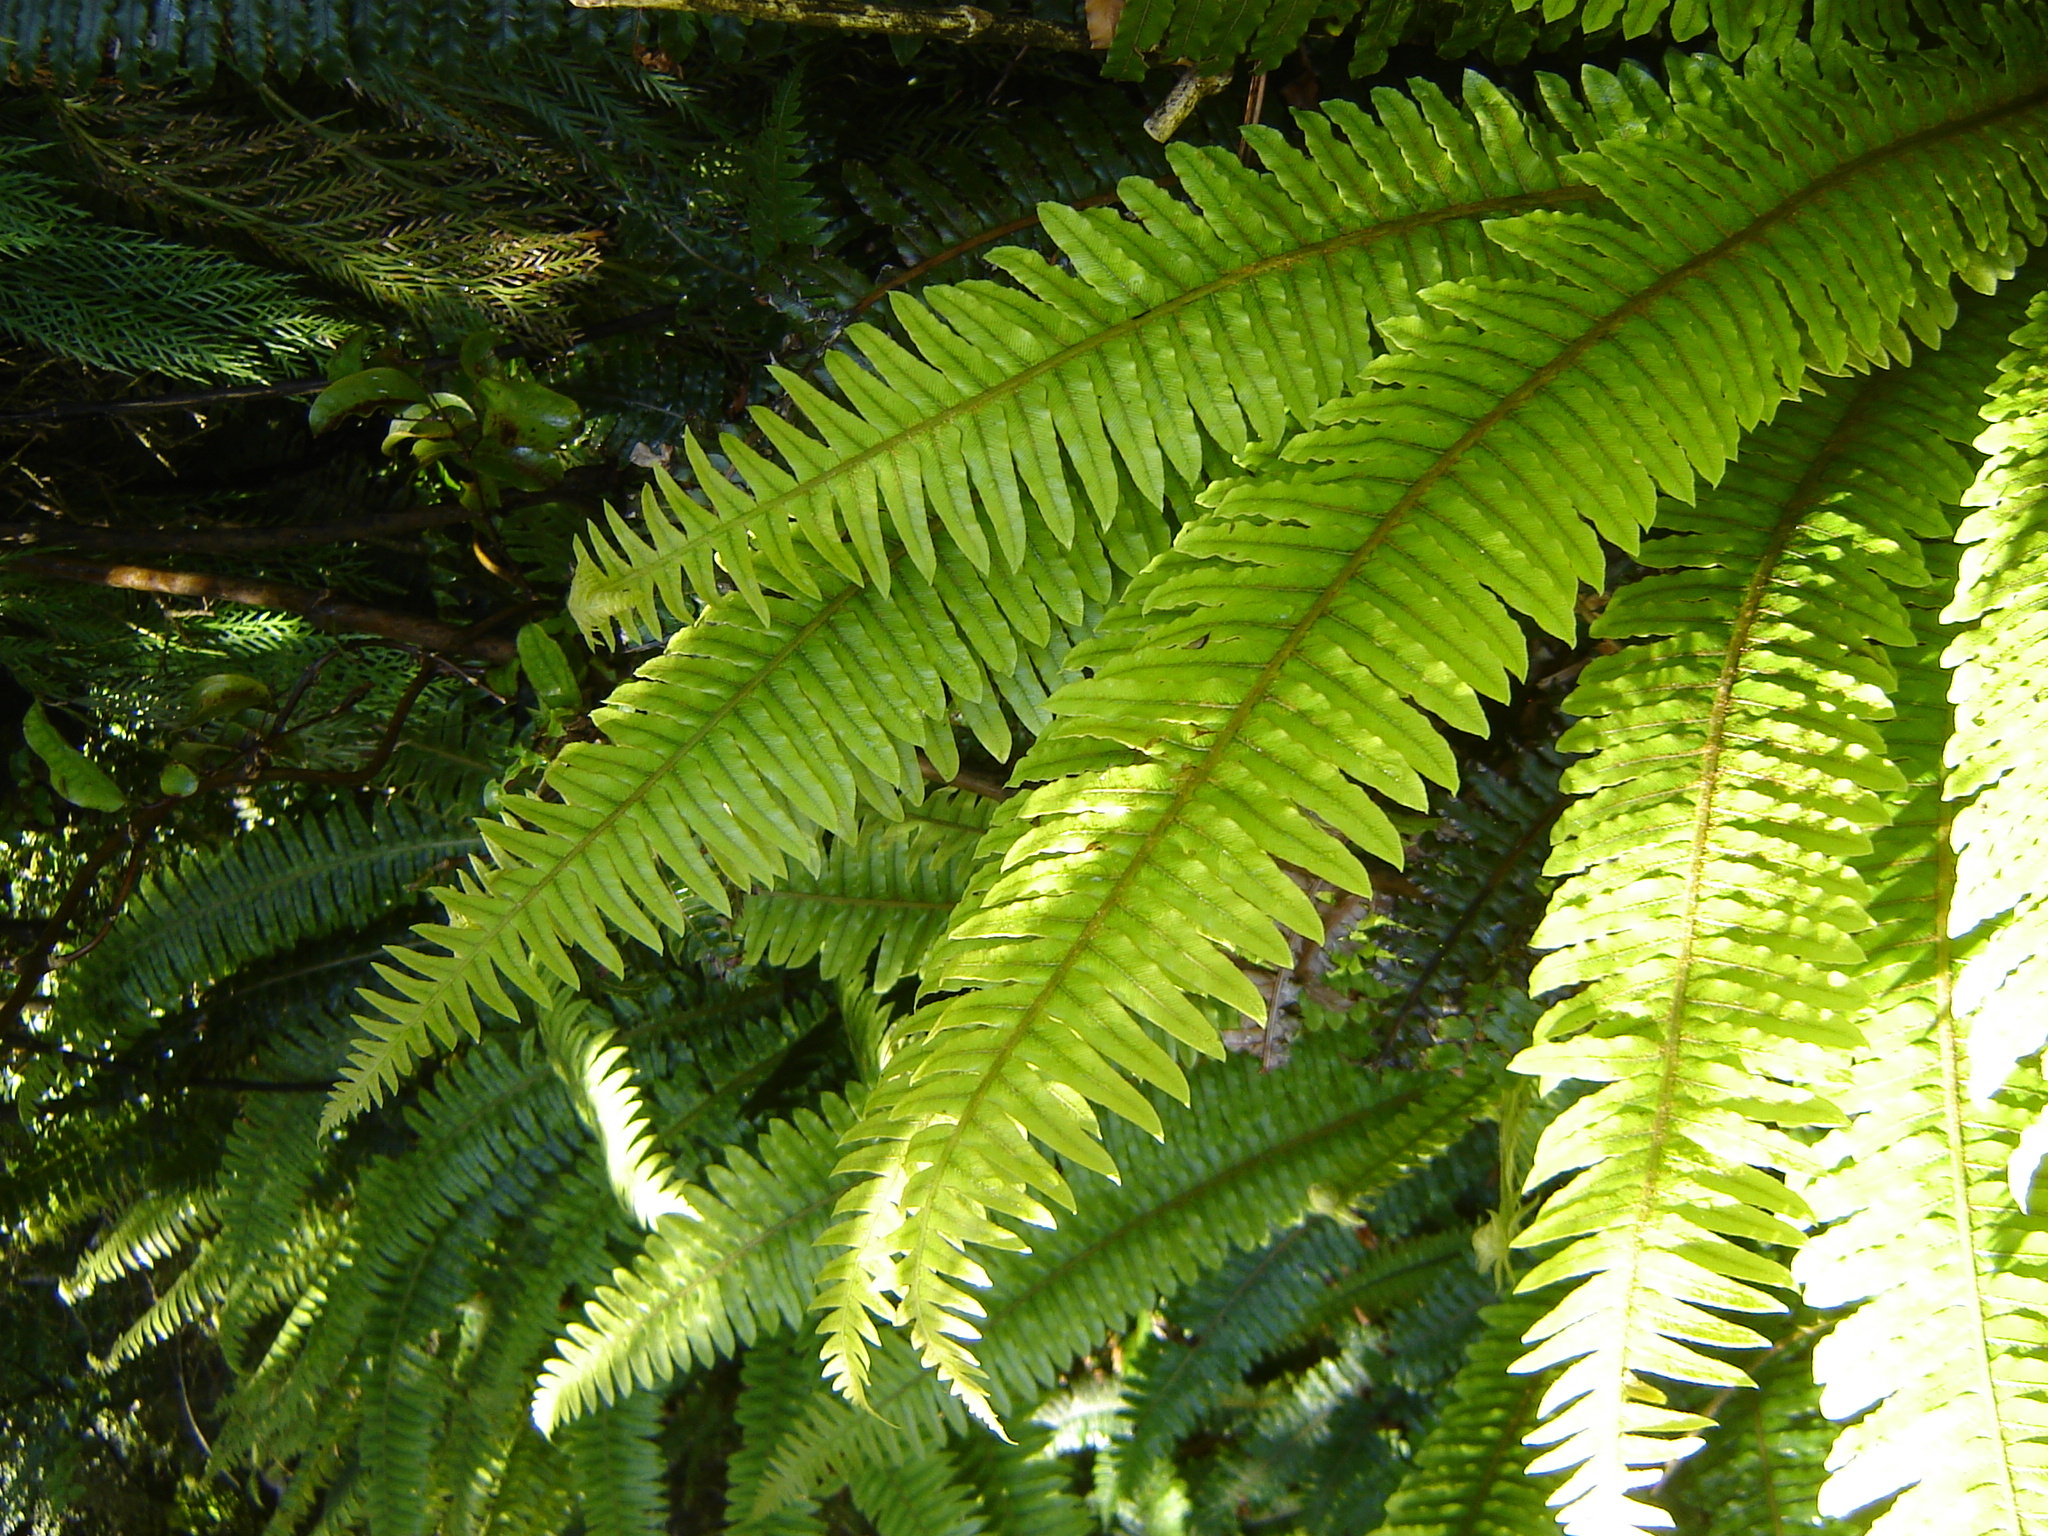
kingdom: Plantae
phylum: Tracheophyta
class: Polypodiopsida
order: Polypodiales
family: Blechnaceae
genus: Lomaria
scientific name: Lomaria discolor
